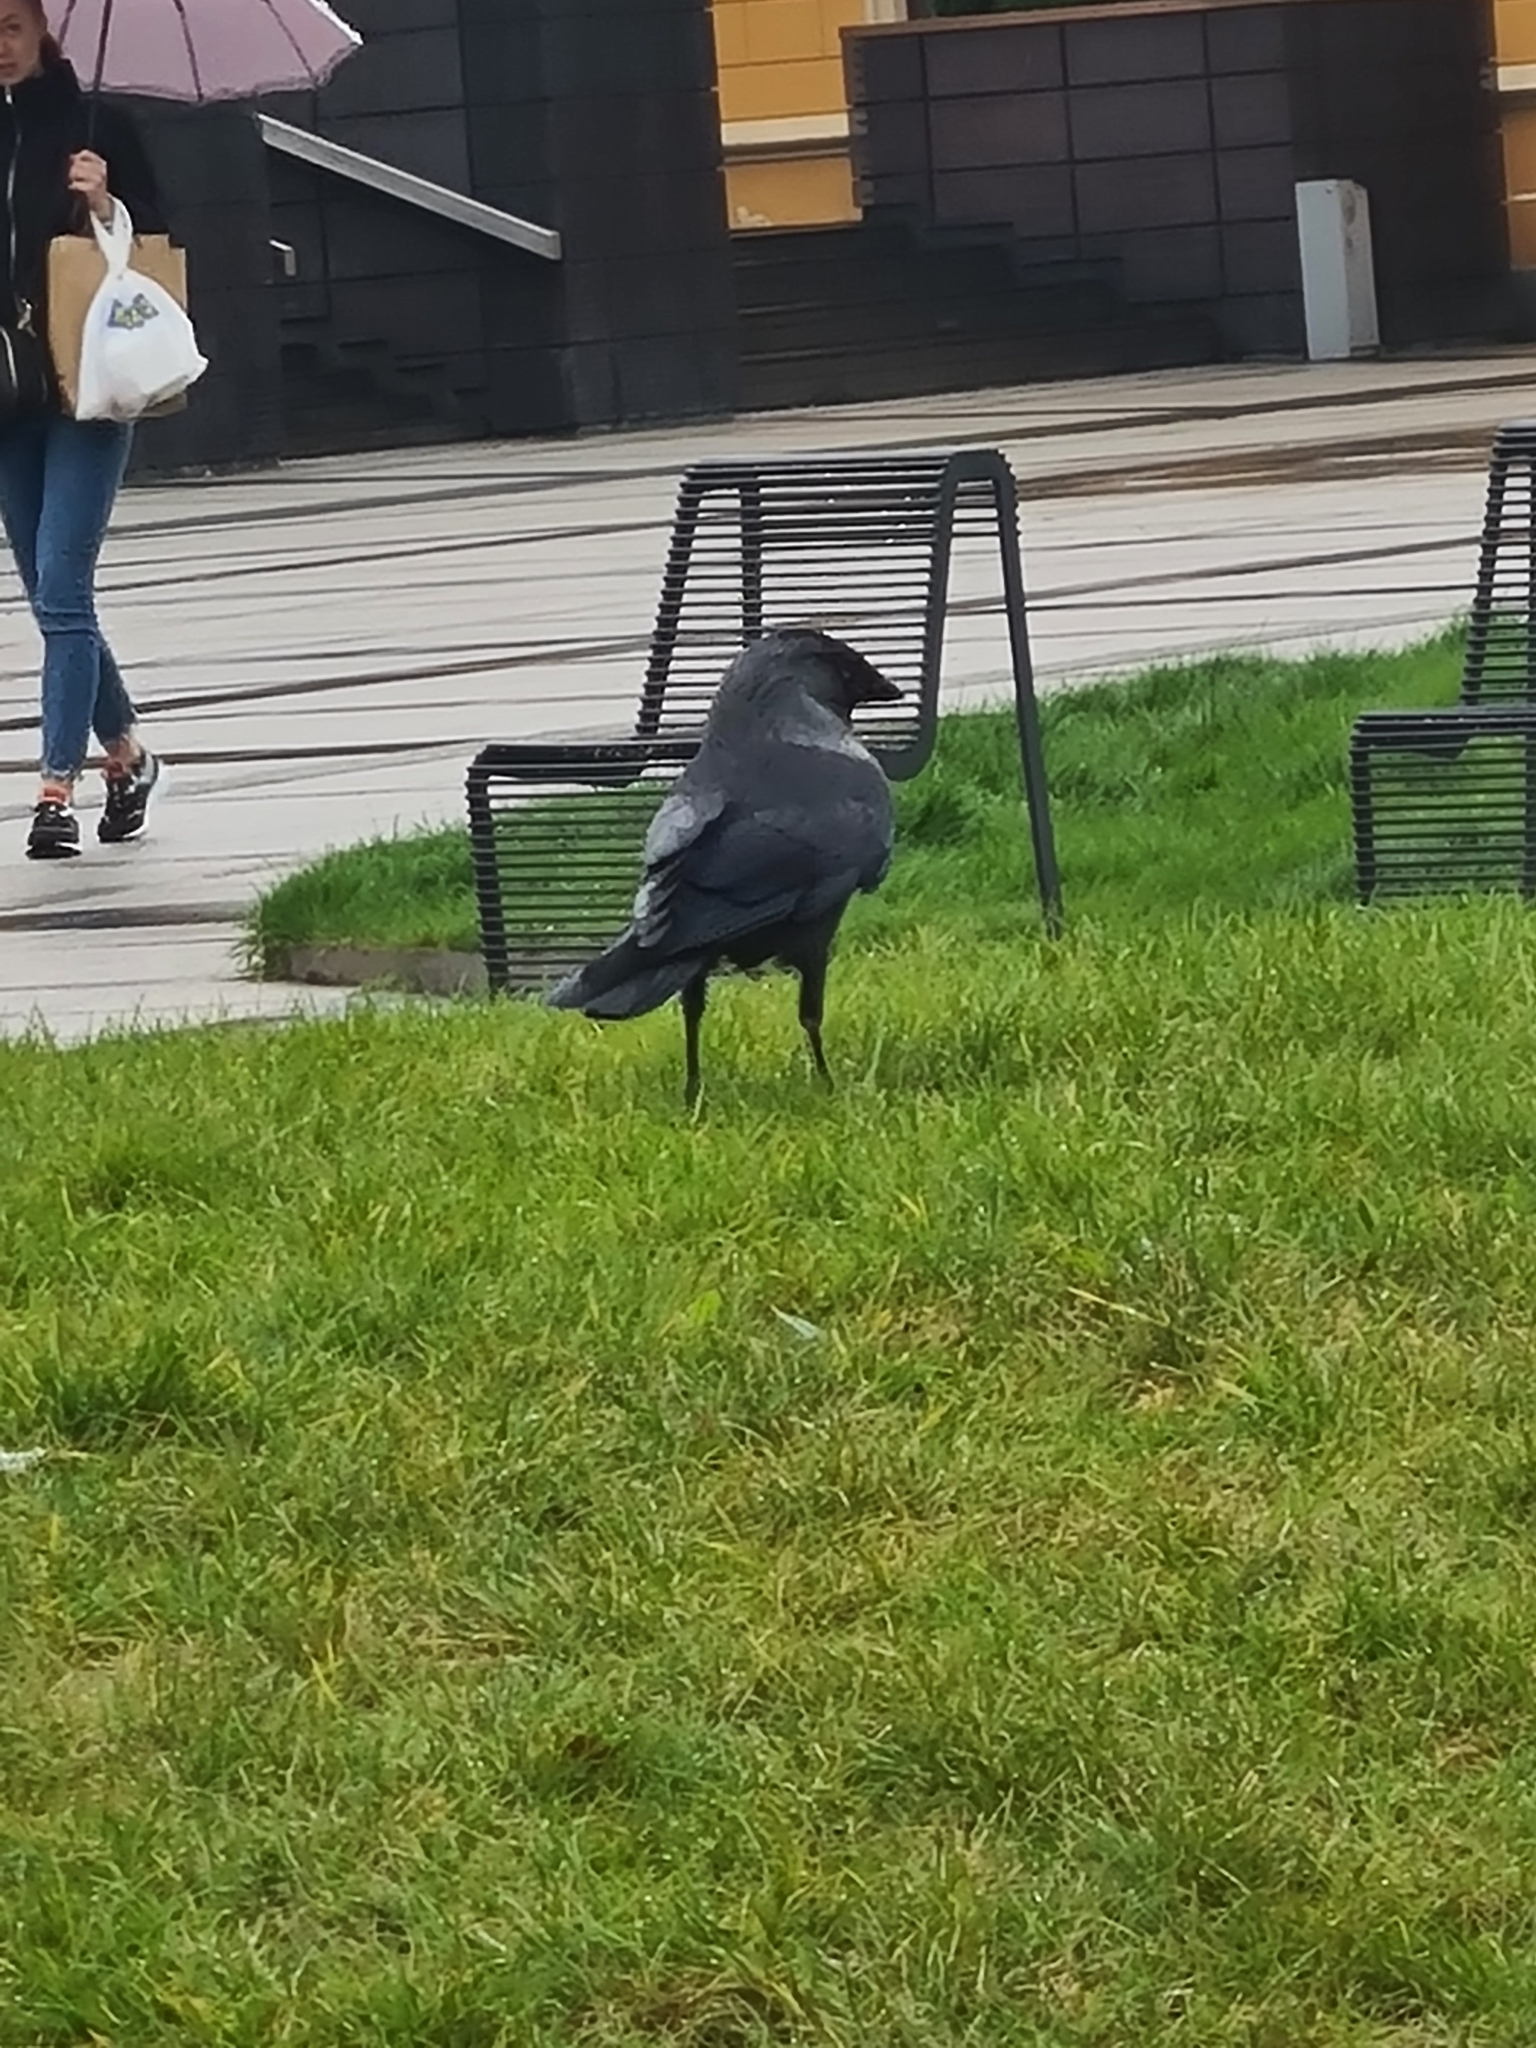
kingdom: Animalia
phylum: Chordata
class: Aves
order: Passeriformes
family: Corvidae
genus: Coloeus
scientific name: Coloeus monedula
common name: Western jackdaw
